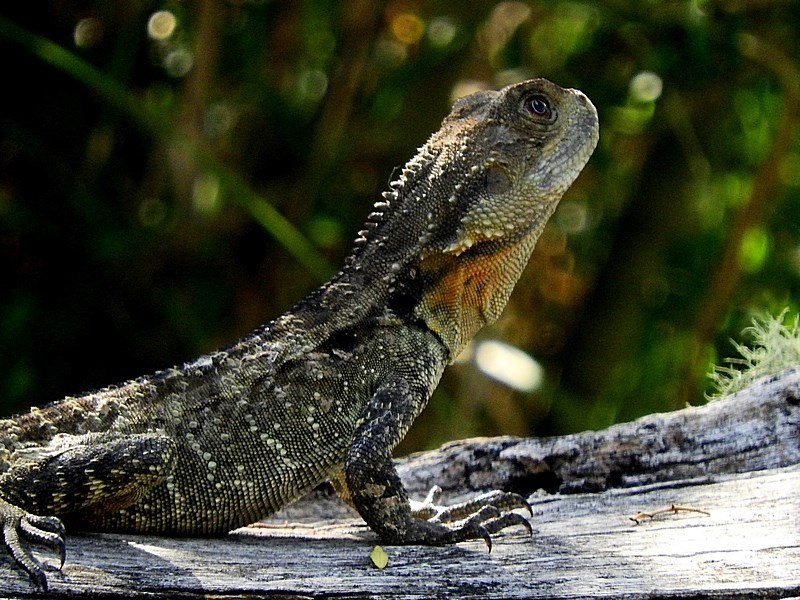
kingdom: Animalia
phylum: Chordata
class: Squamata
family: Agamidae
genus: Intellagama
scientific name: Intellagama lesueurii
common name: Eastern water dragon
